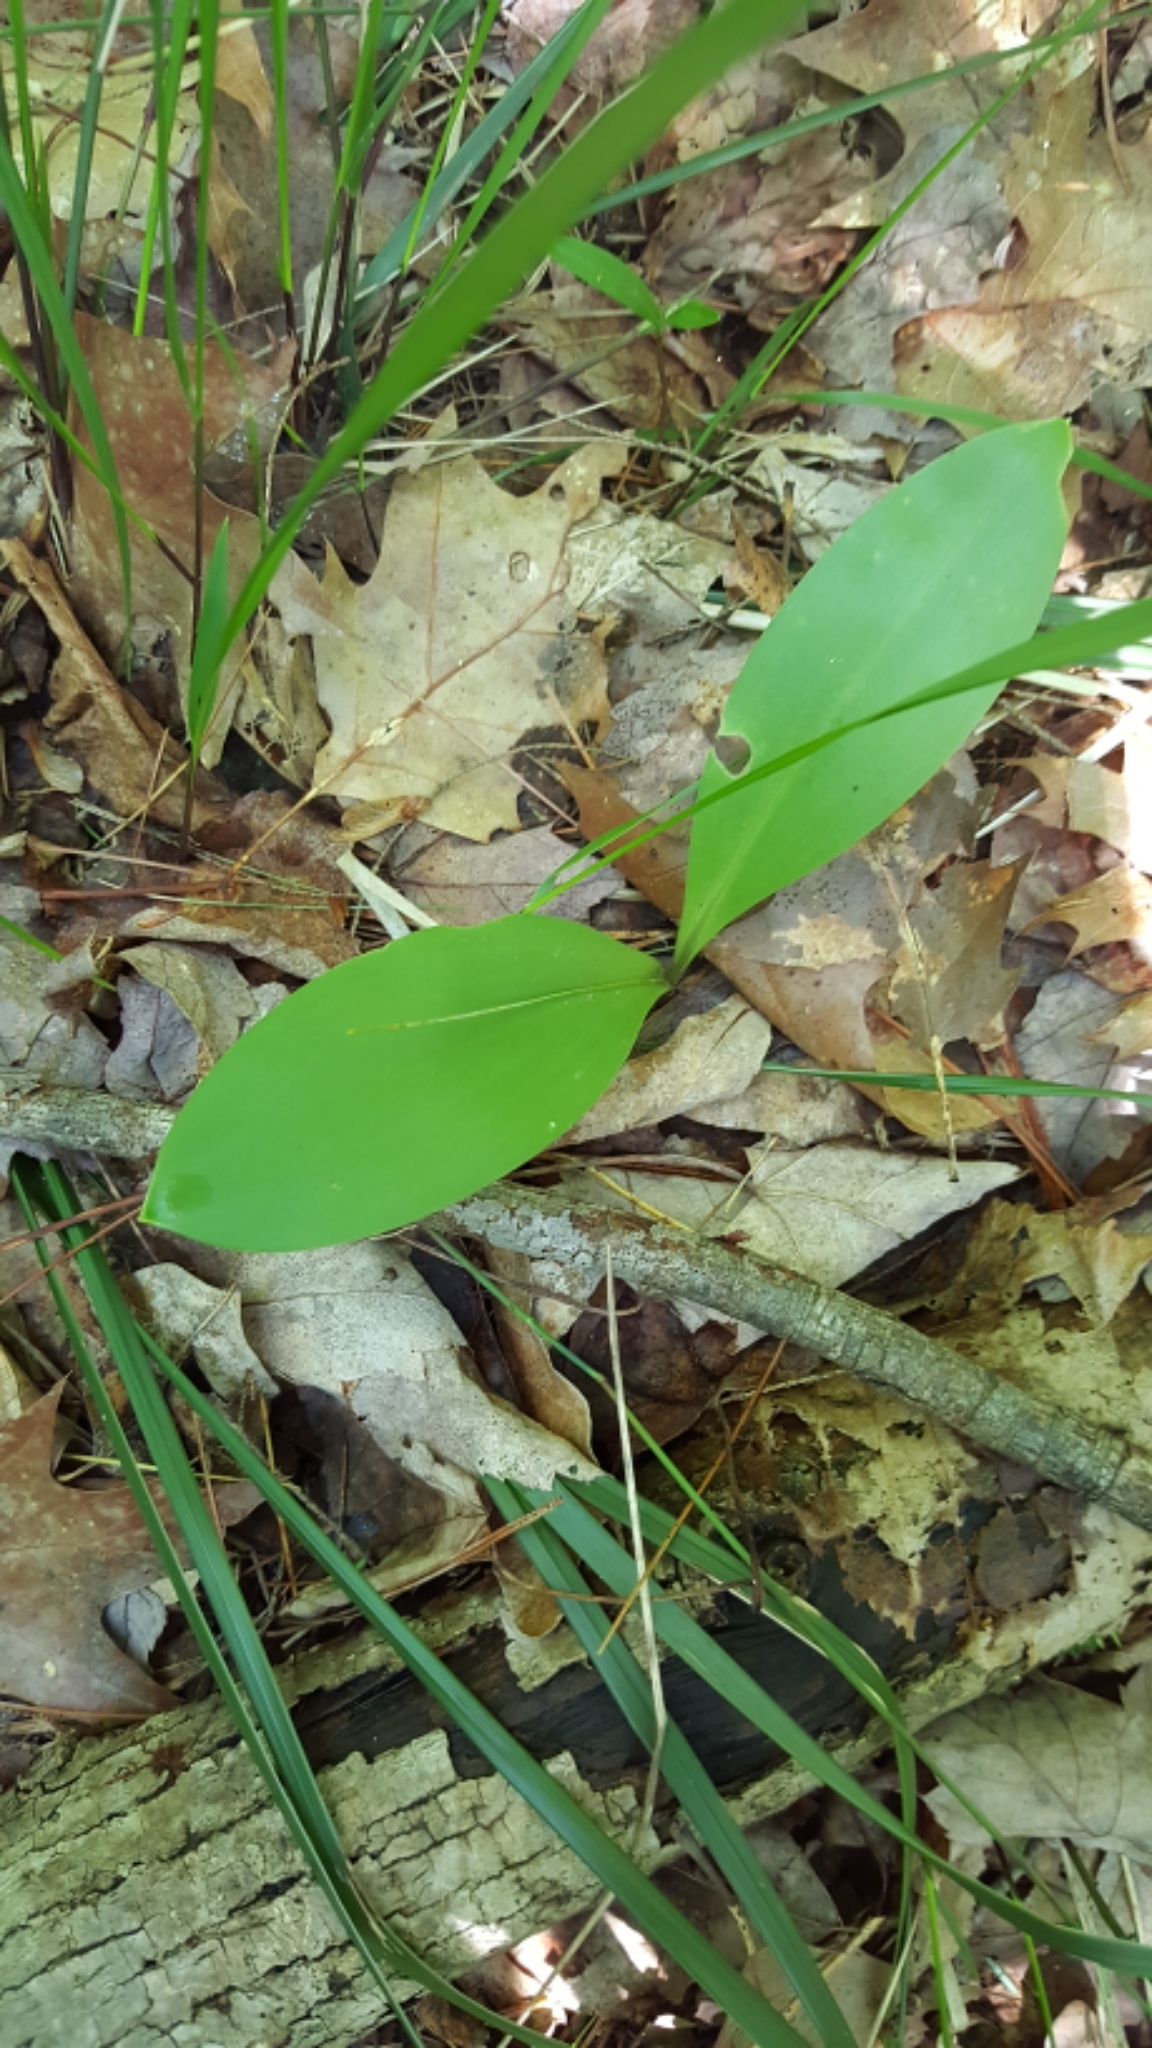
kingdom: Plantae
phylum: Tracheophyta
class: Liliopsida
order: Liliales
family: Liliaceae
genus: Clintonia
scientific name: Clintonia borealis
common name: Yellow clintonia
